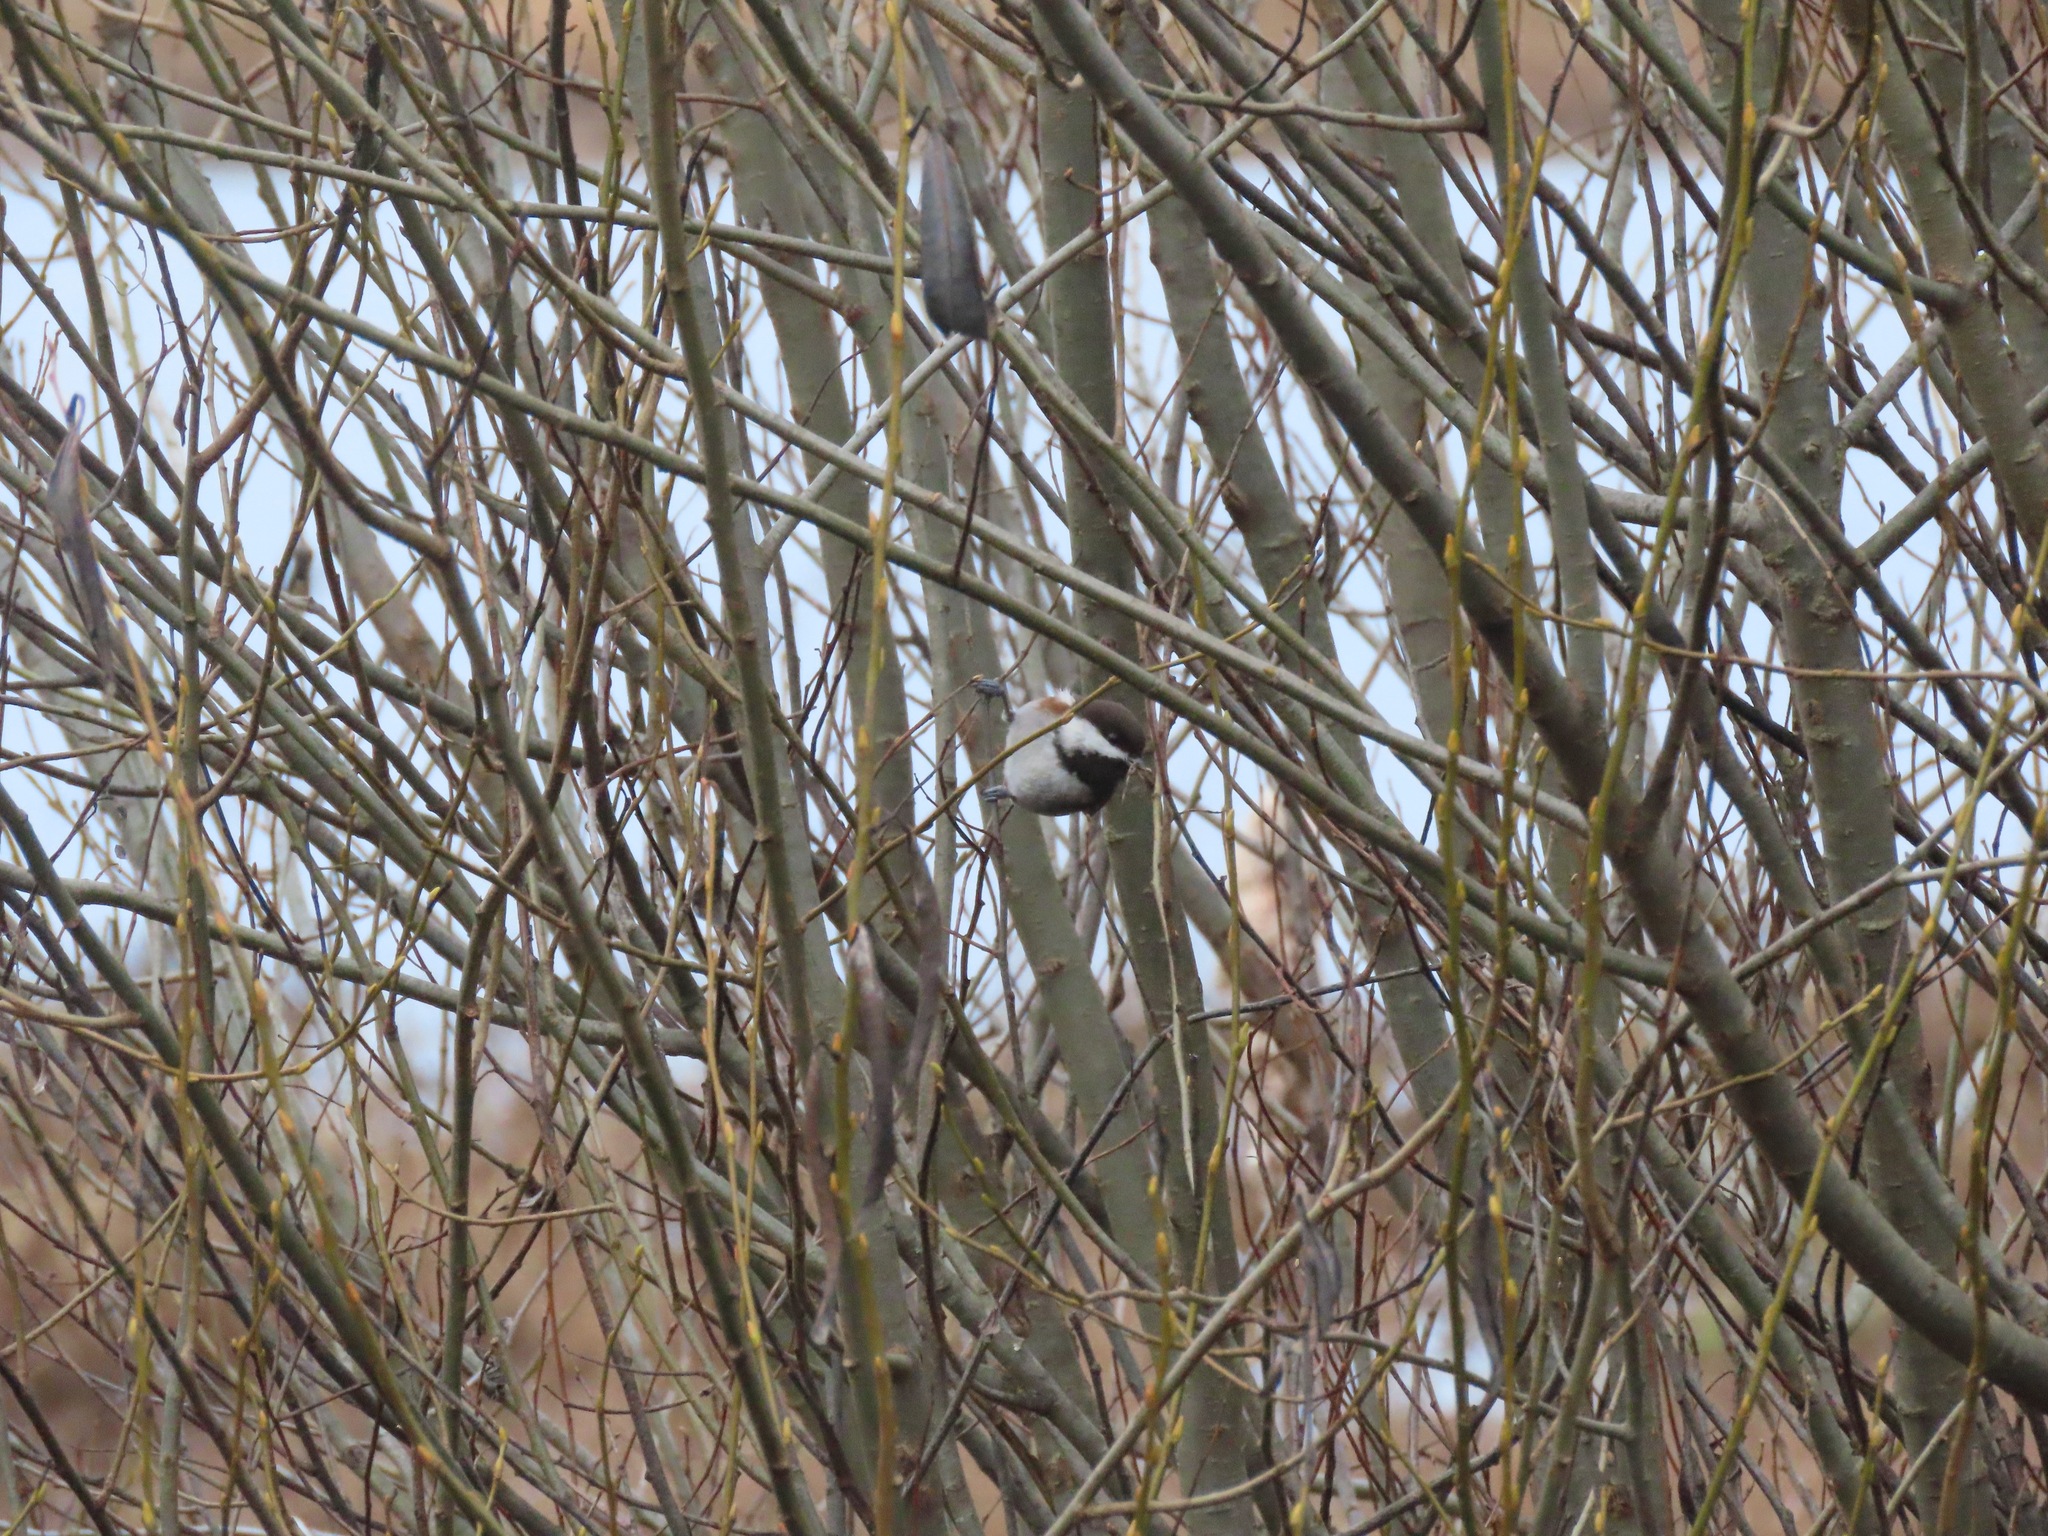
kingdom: Animalia
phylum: Chordata
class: Aves
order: Passeriformes
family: Paridae
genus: Poecile
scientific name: Poecile rufescens
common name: Chestnut-backed chickadee
